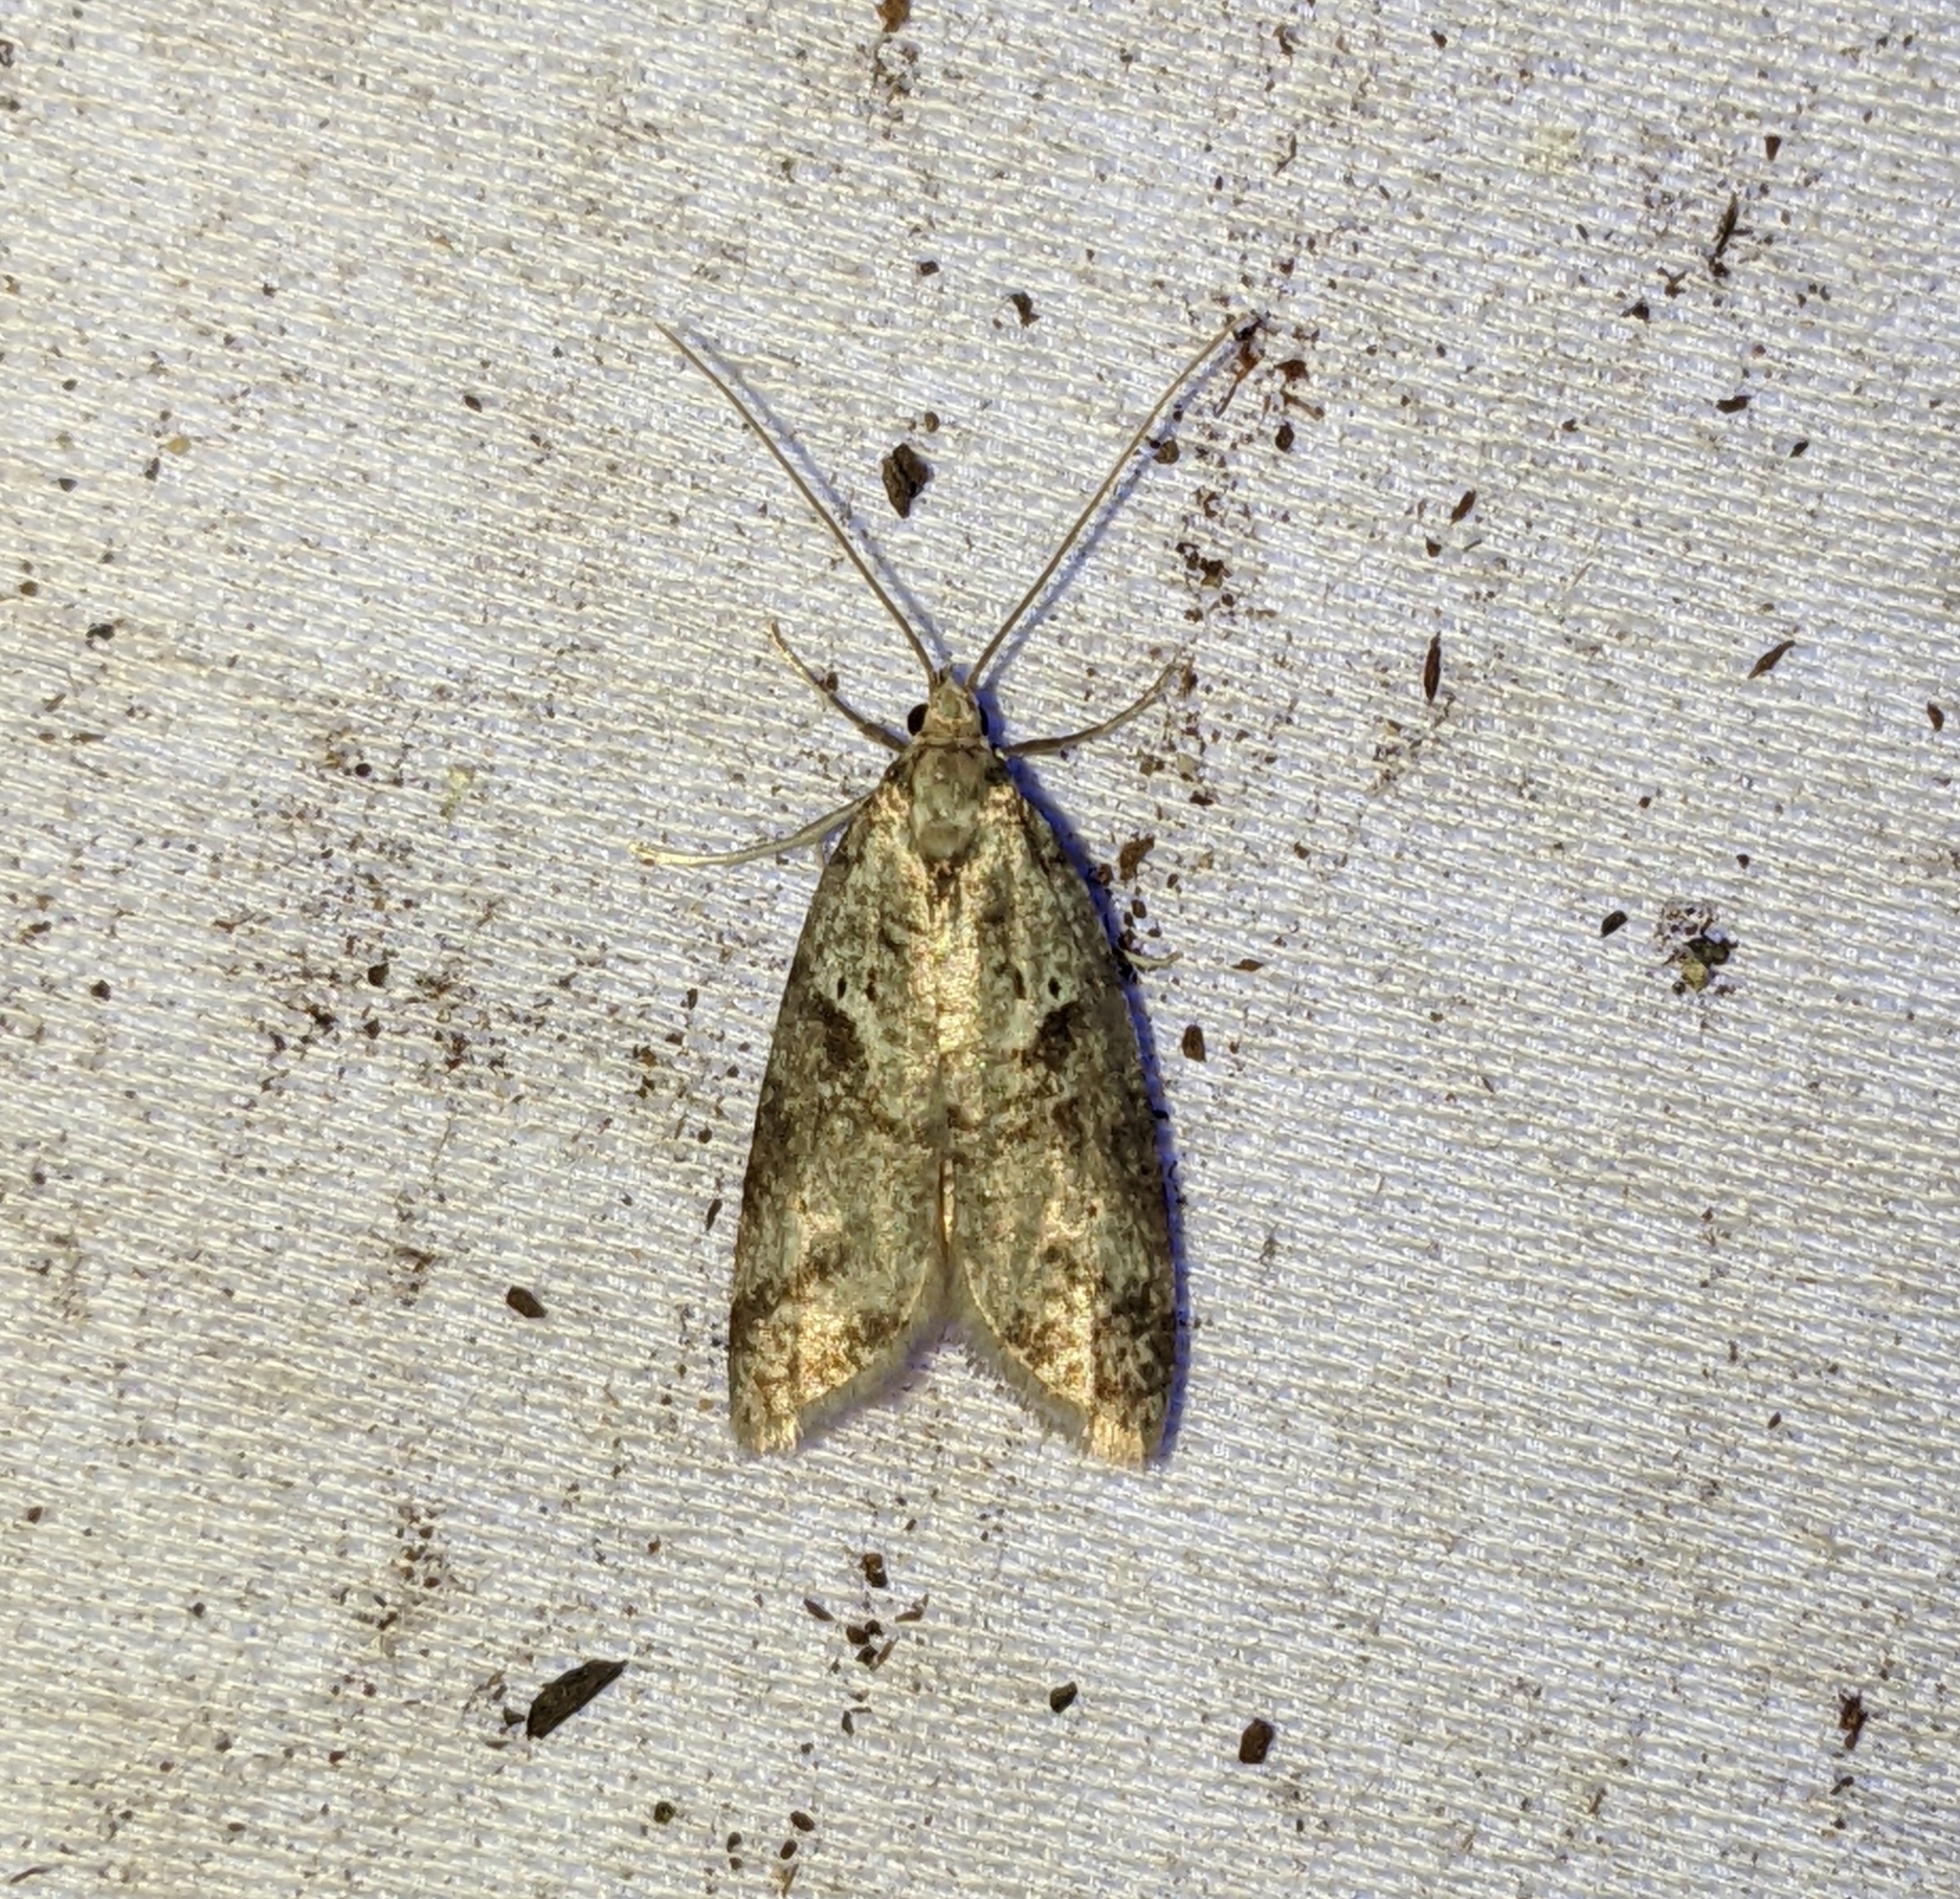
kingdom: Animalia
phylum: Arthropoda
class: Insecta
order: Lepidoptera
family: Copromorphidae
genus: Lotisma
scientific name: Lotisma trigonana
